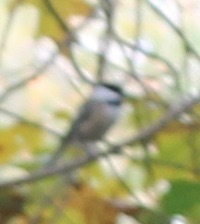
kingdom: Animalia
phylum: Chordata
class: Aves
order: Passeriformes
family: Paridae
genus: Poecile
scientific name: Poecile atricapillus
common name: Black-capped chickadee
